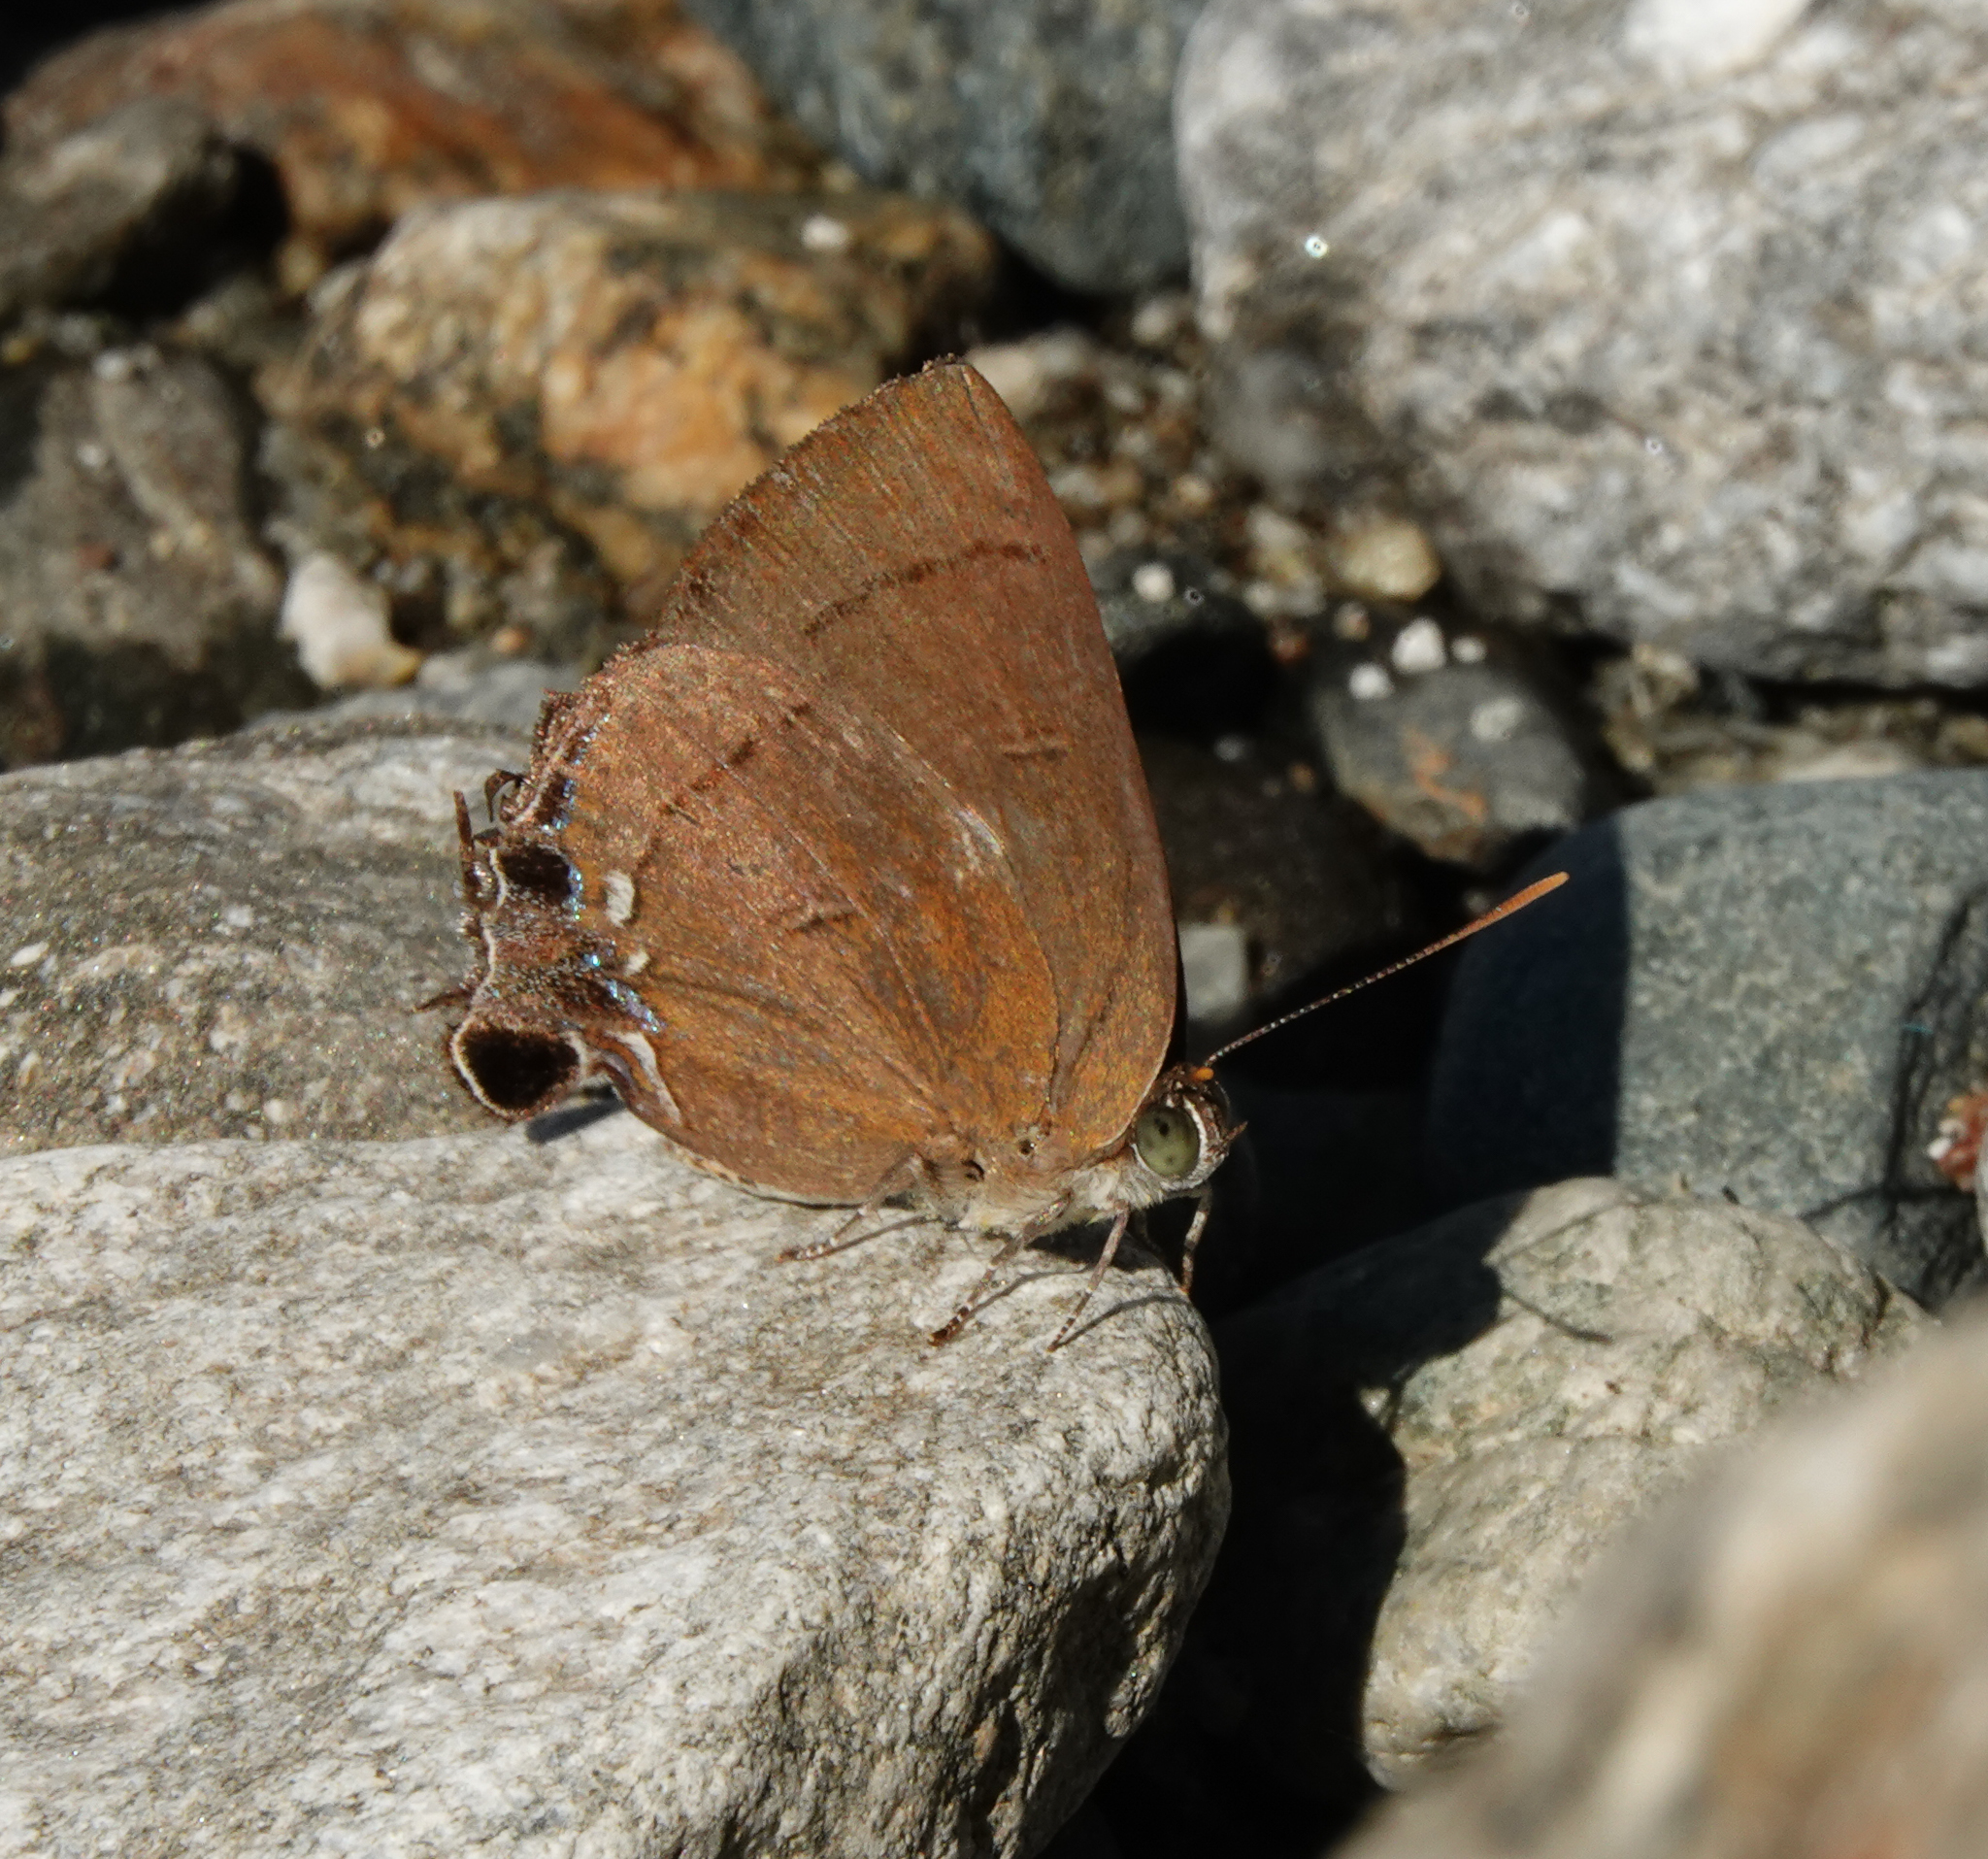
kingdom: Animalia
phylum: Arthropoda
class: Insecta
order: Lepidoptera
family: Lycaenidae
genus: Remelana
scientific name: Remelana jangala
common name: Chocolate royal
